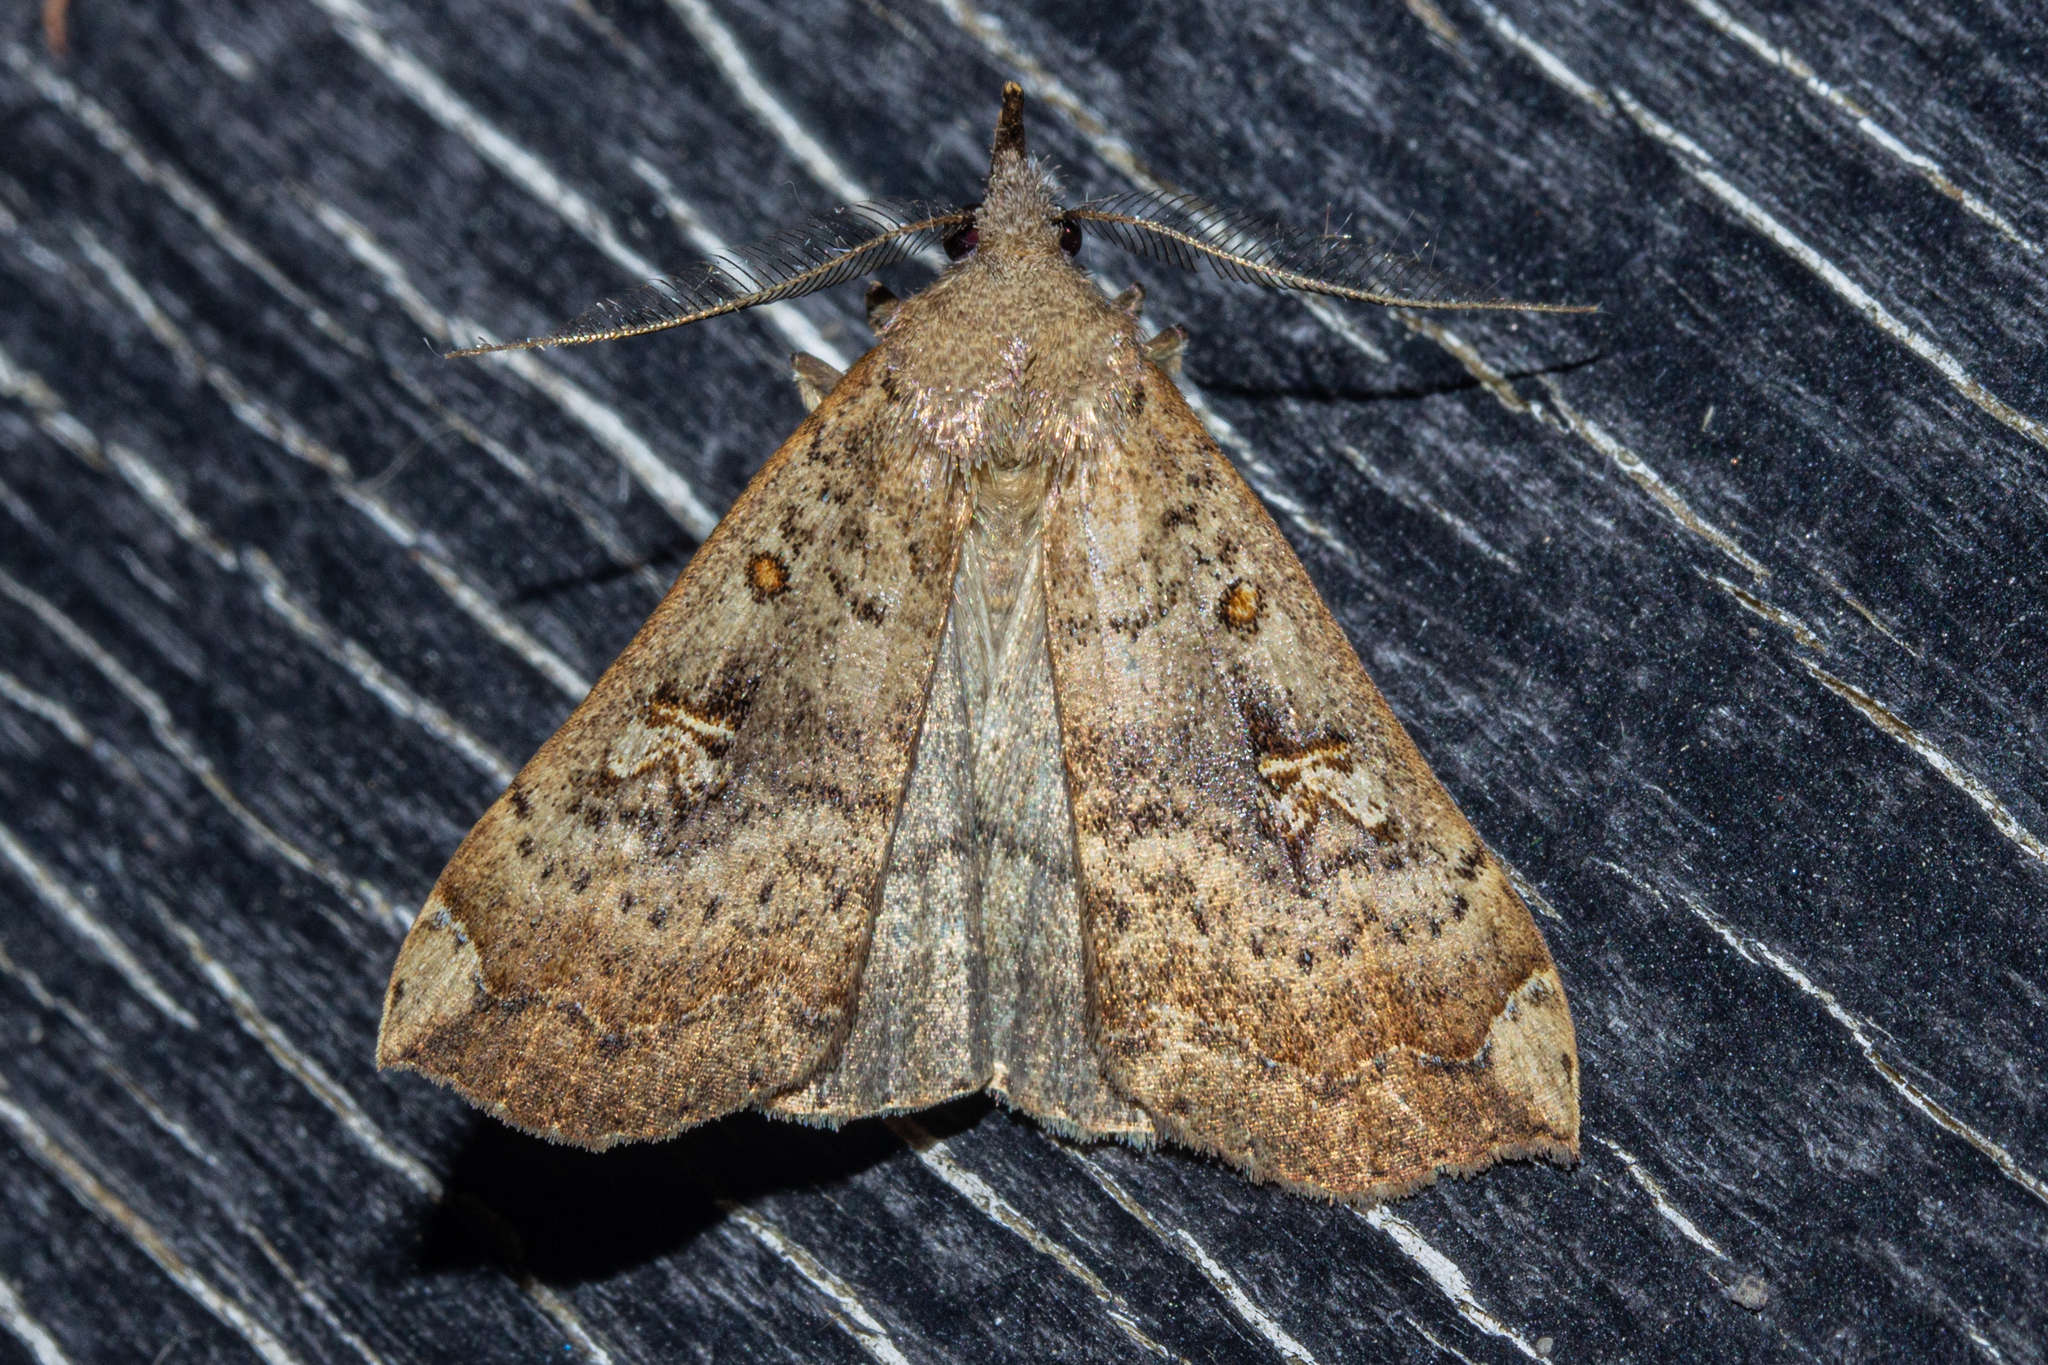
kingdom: Animalia
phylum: Arthropoda
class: Insecta
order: Lepidoptera
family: Erebidae
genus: Rhapsa
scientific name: Rhapsa scotosialis
